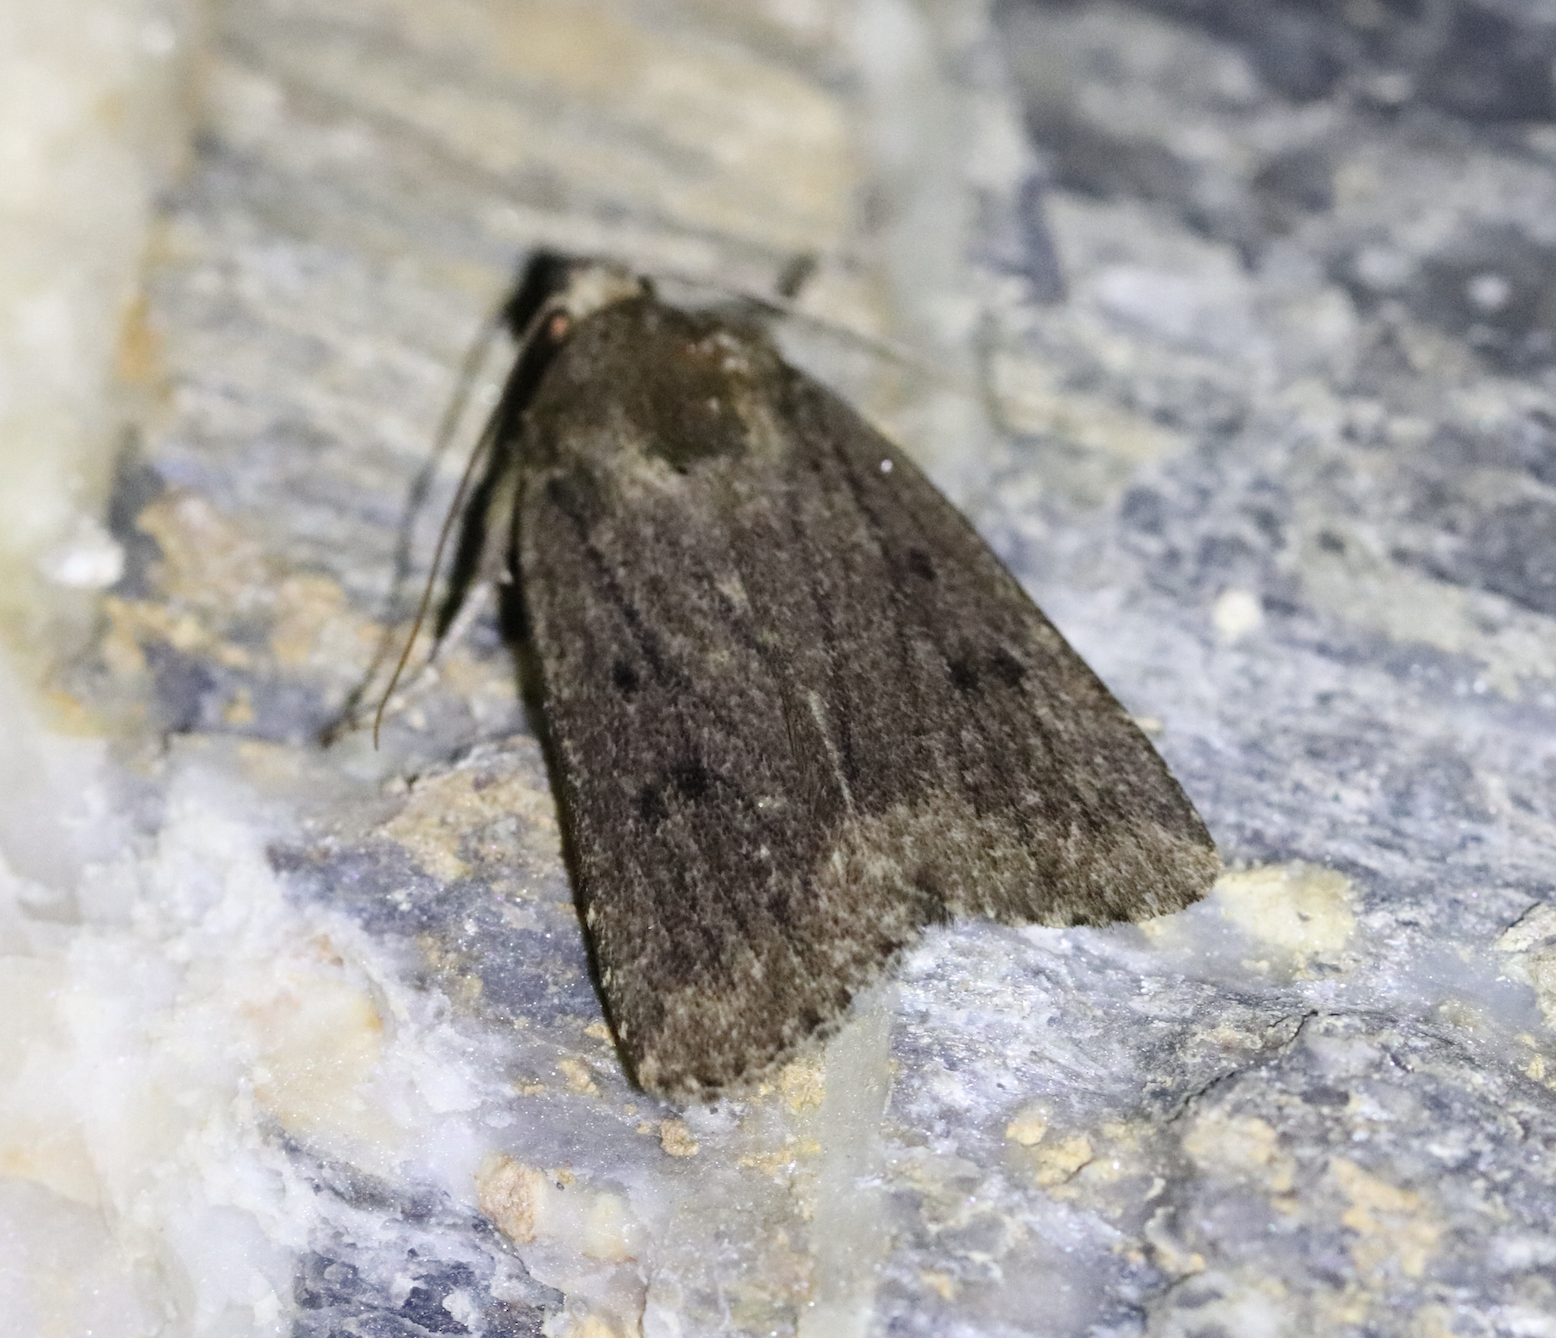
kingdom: Animalia
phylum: Arthropoda
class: Insecta
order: Lepidoptera
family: Noctuidae
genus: Amphipyra
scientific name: Amphipyra tragopoginis
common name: Mouse moth
